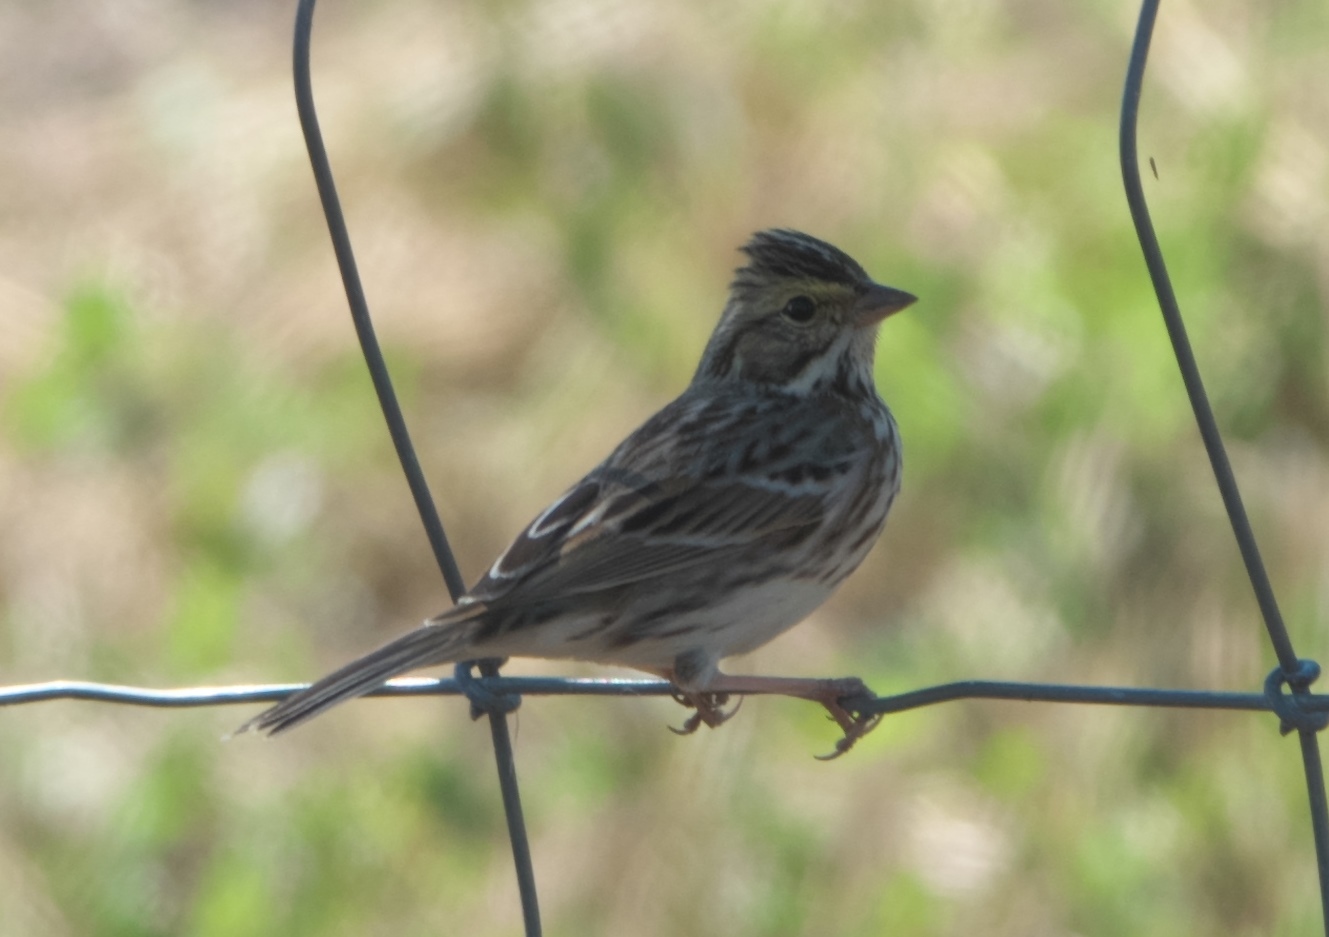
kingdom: Animalia
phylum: Chordata
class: Aves
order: Passeriformes
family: Passerellidae
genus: Passerculus
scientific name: Passerculus sandwichensis
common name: Savannah sparrow
